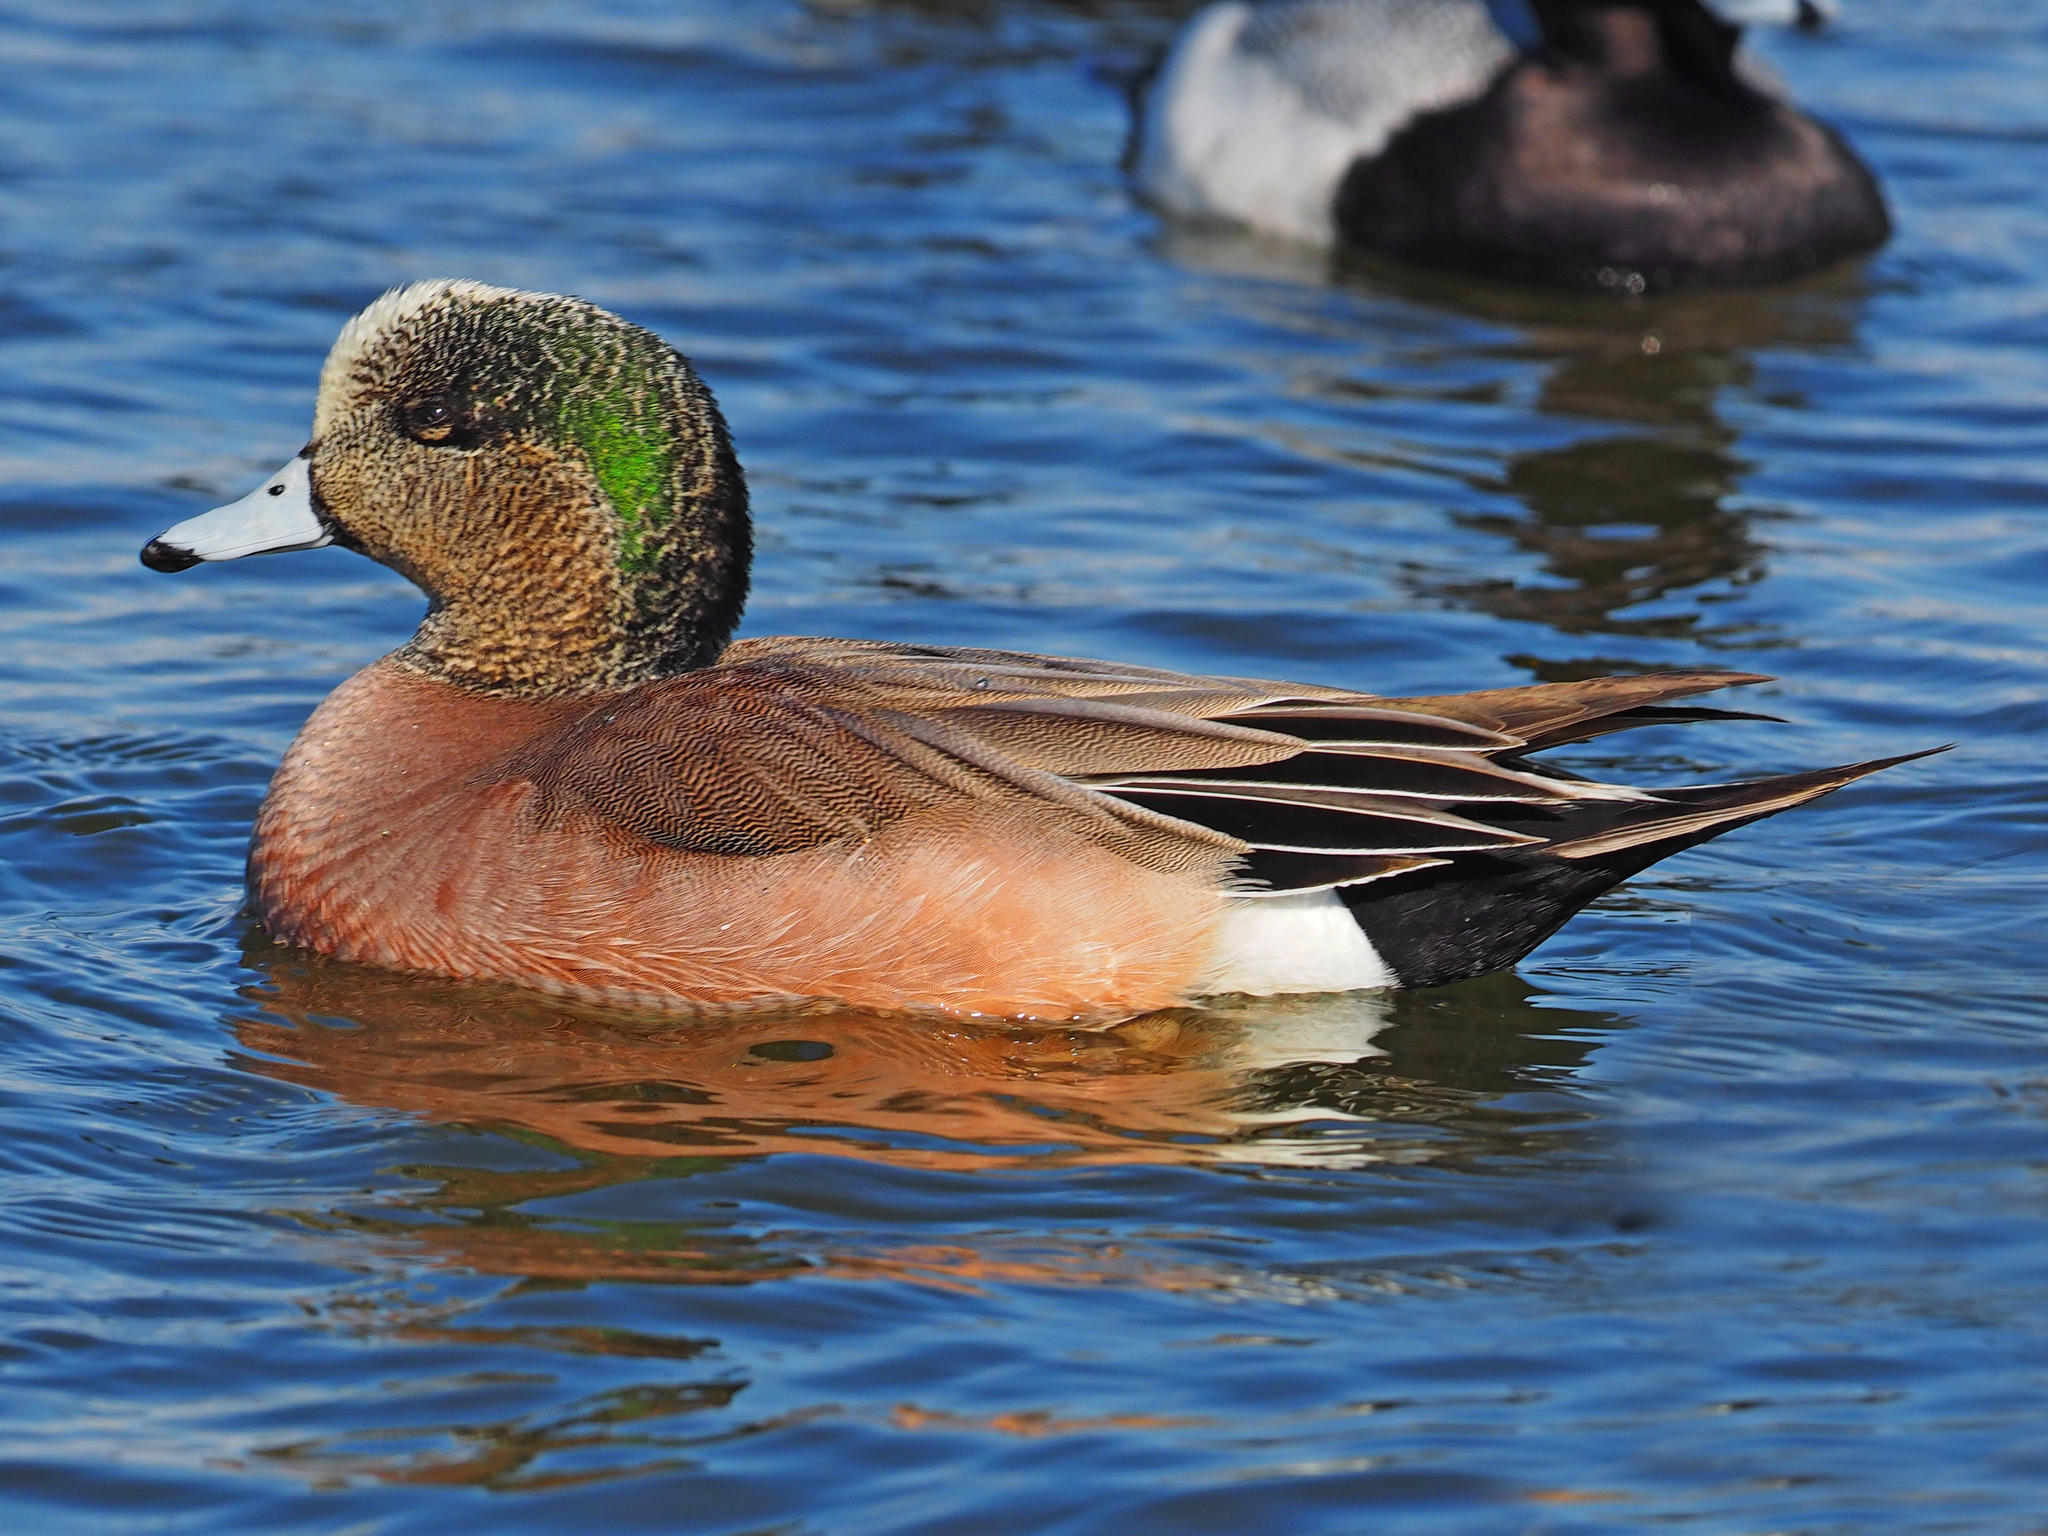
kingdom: Animalia
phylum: Chordata
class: Aves
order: Anseriformes
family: Anatidae
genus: Mareca
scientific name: Mareca americana
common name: American wigeon
